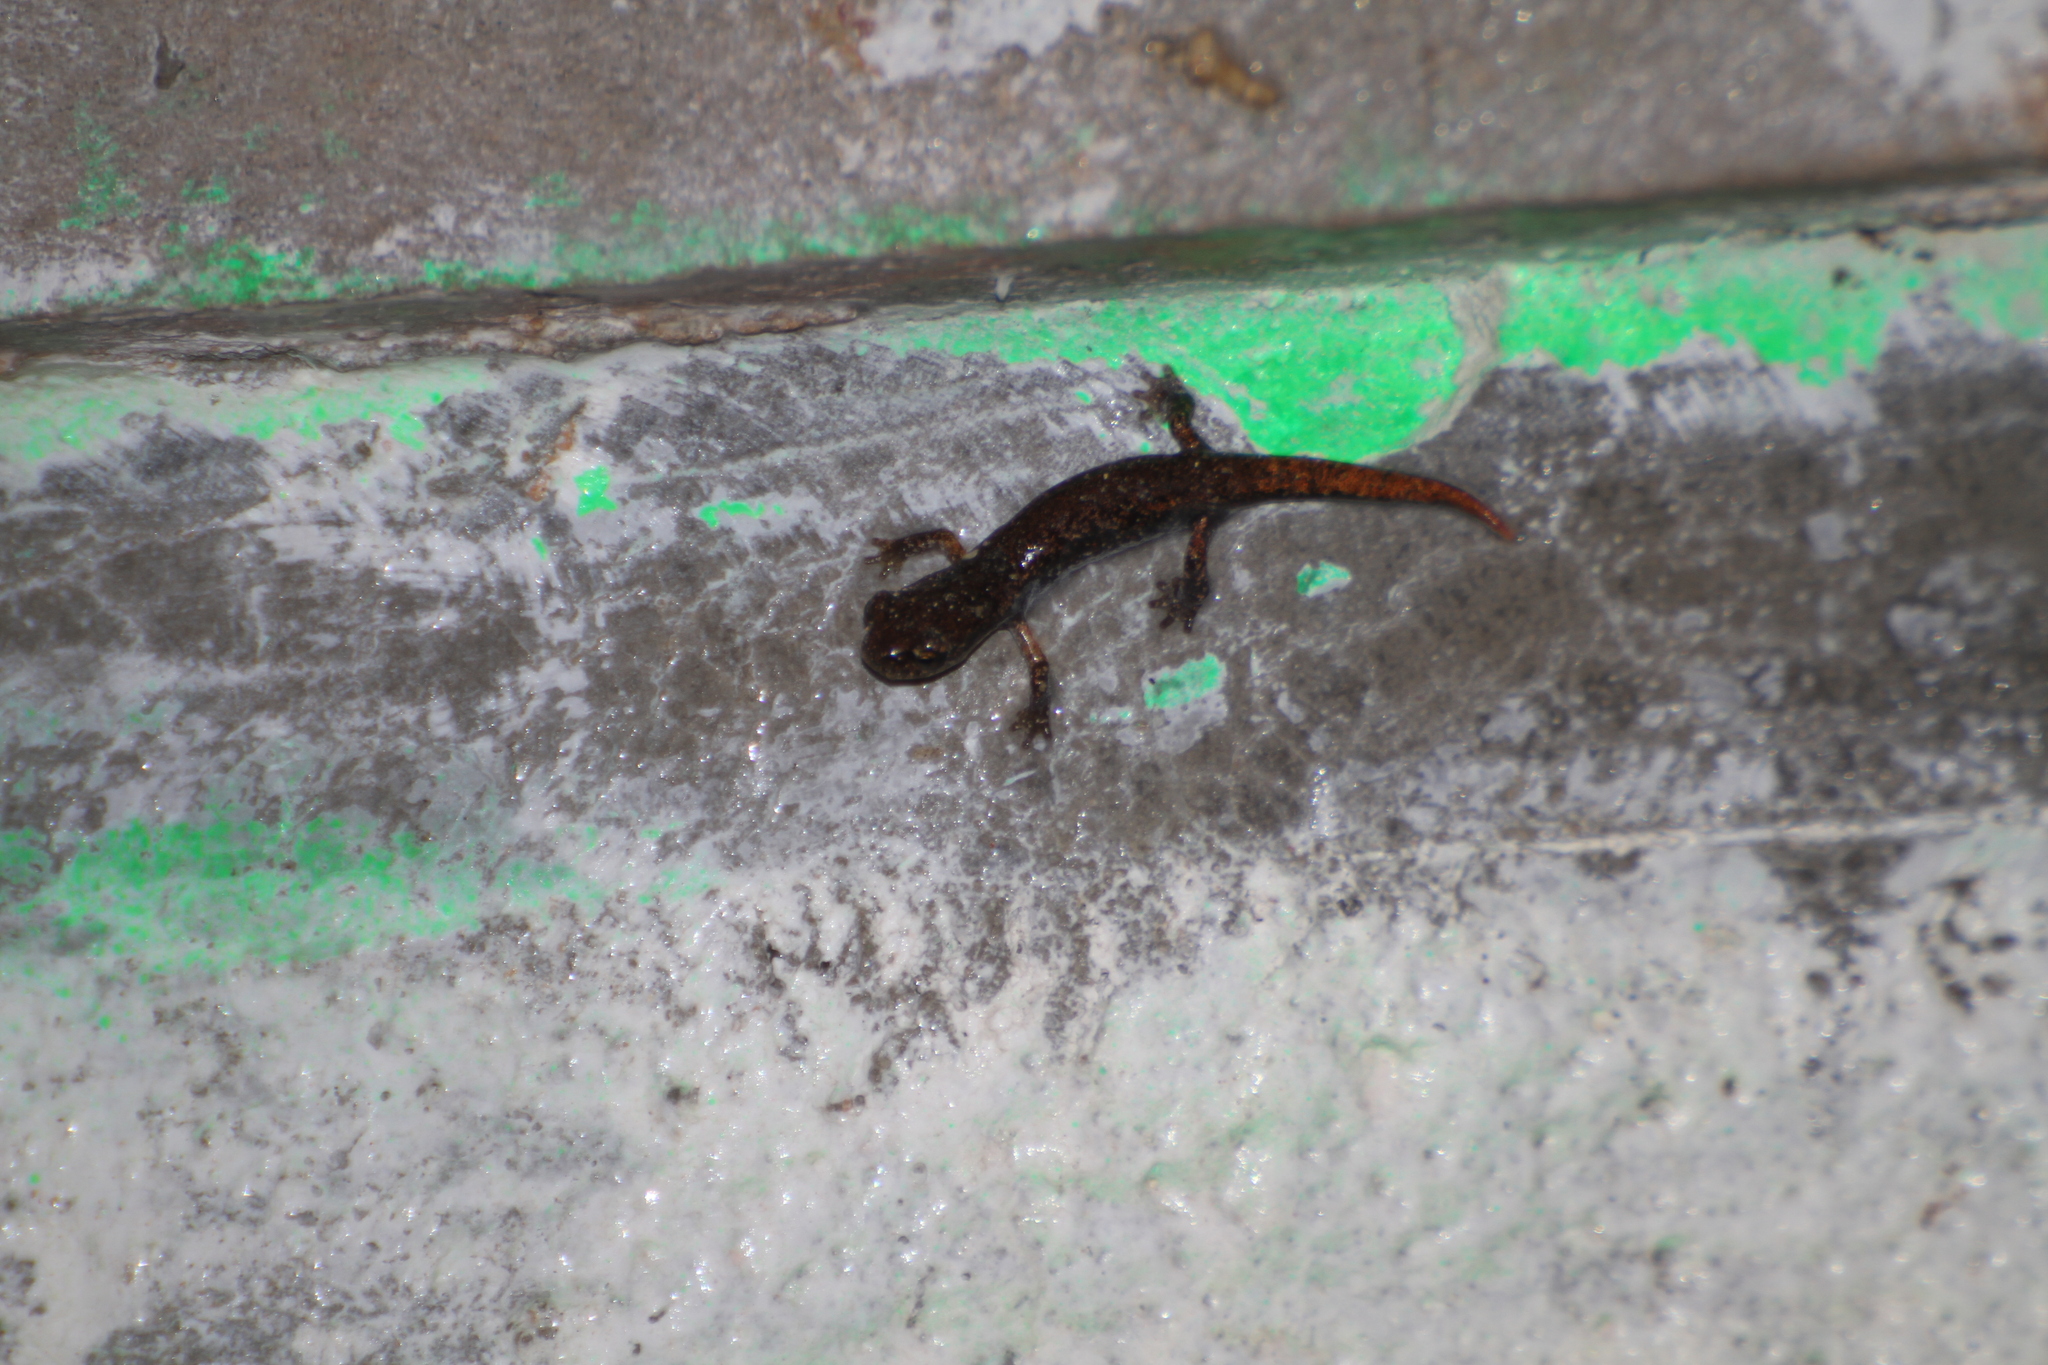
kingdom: Animalia
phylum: Chordata
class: Amphibia
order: Caudata
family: Plethodontidae
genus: Speleomantes
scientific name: Speleomantes strinatii
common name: French cave salamander
